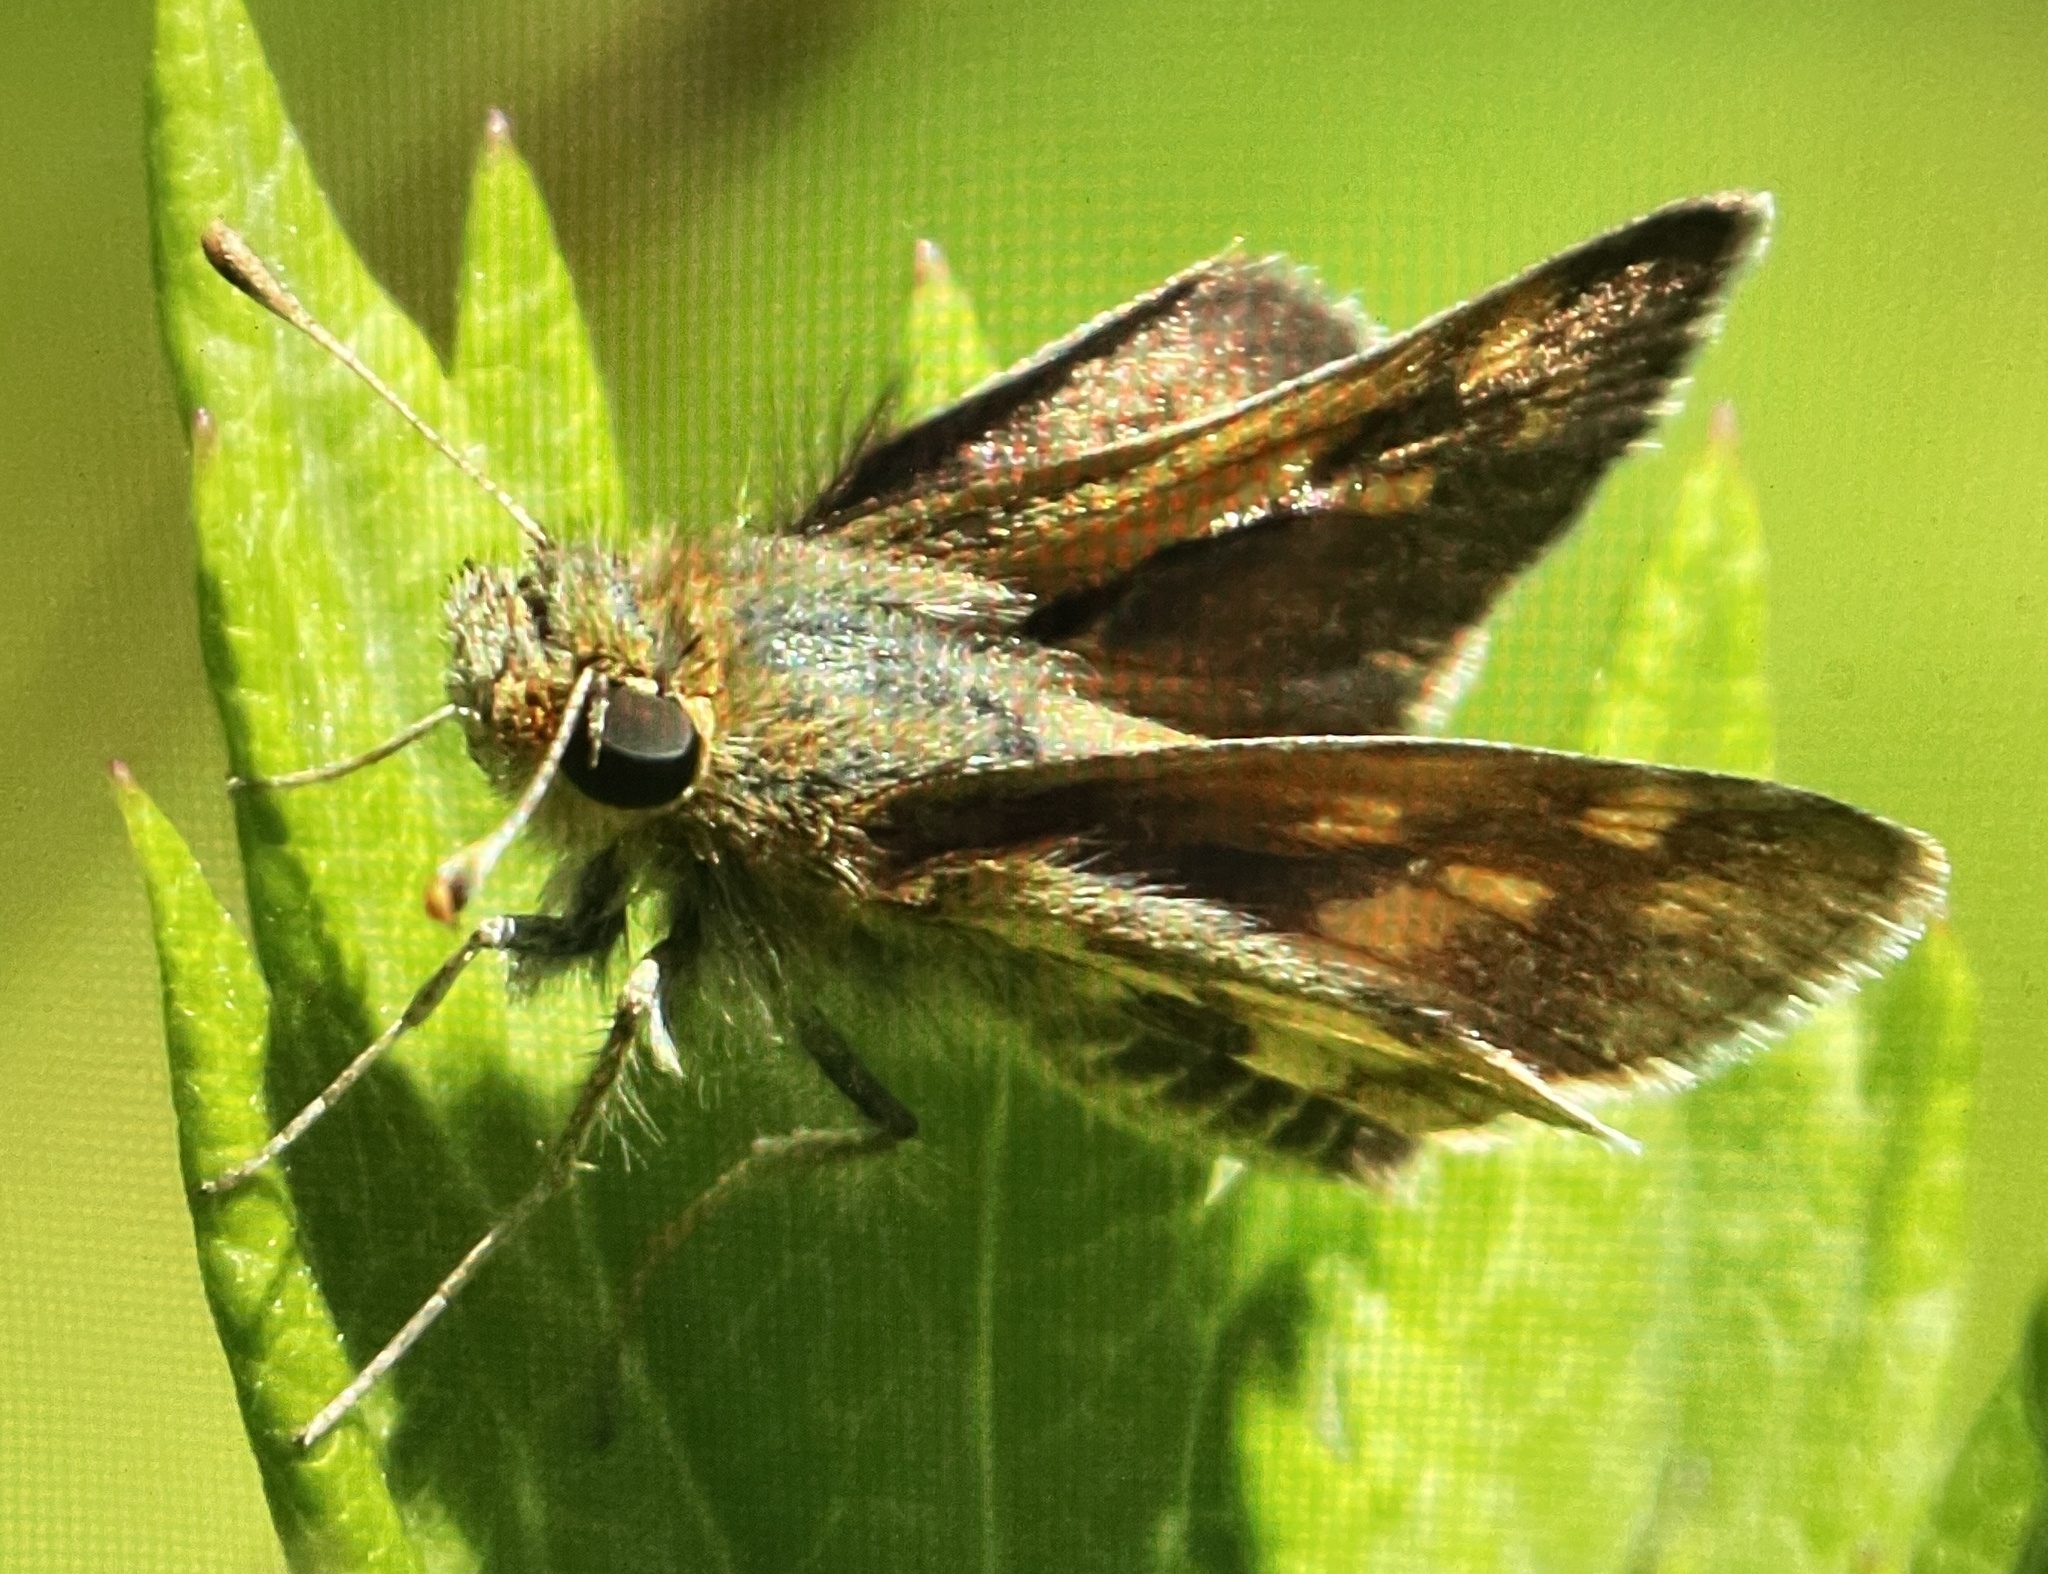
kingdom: Animalia
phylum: Arthropoda
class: Insecta
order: Lepidoptera
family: Hesperiidae
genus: Polites
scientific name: Polites coras
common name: Peck's skipper
